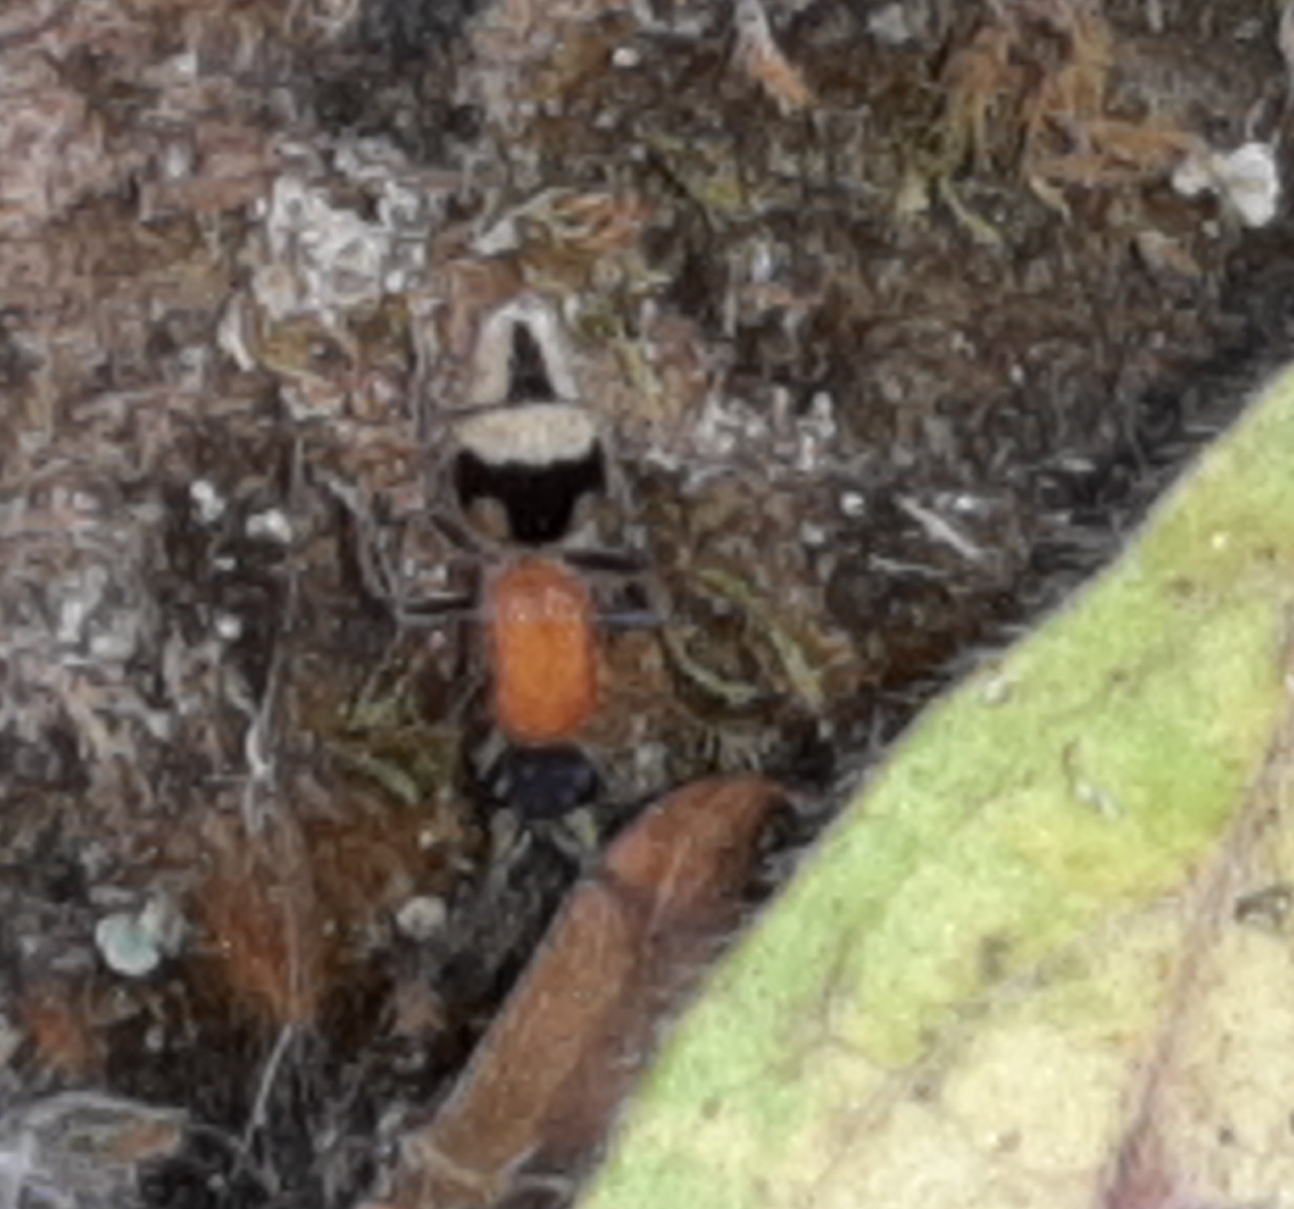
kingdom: Animalia
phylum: Arthropoda
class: Insecta
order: Hymenoptera
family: Mutillidae
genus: Timulla
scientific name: Timulla
